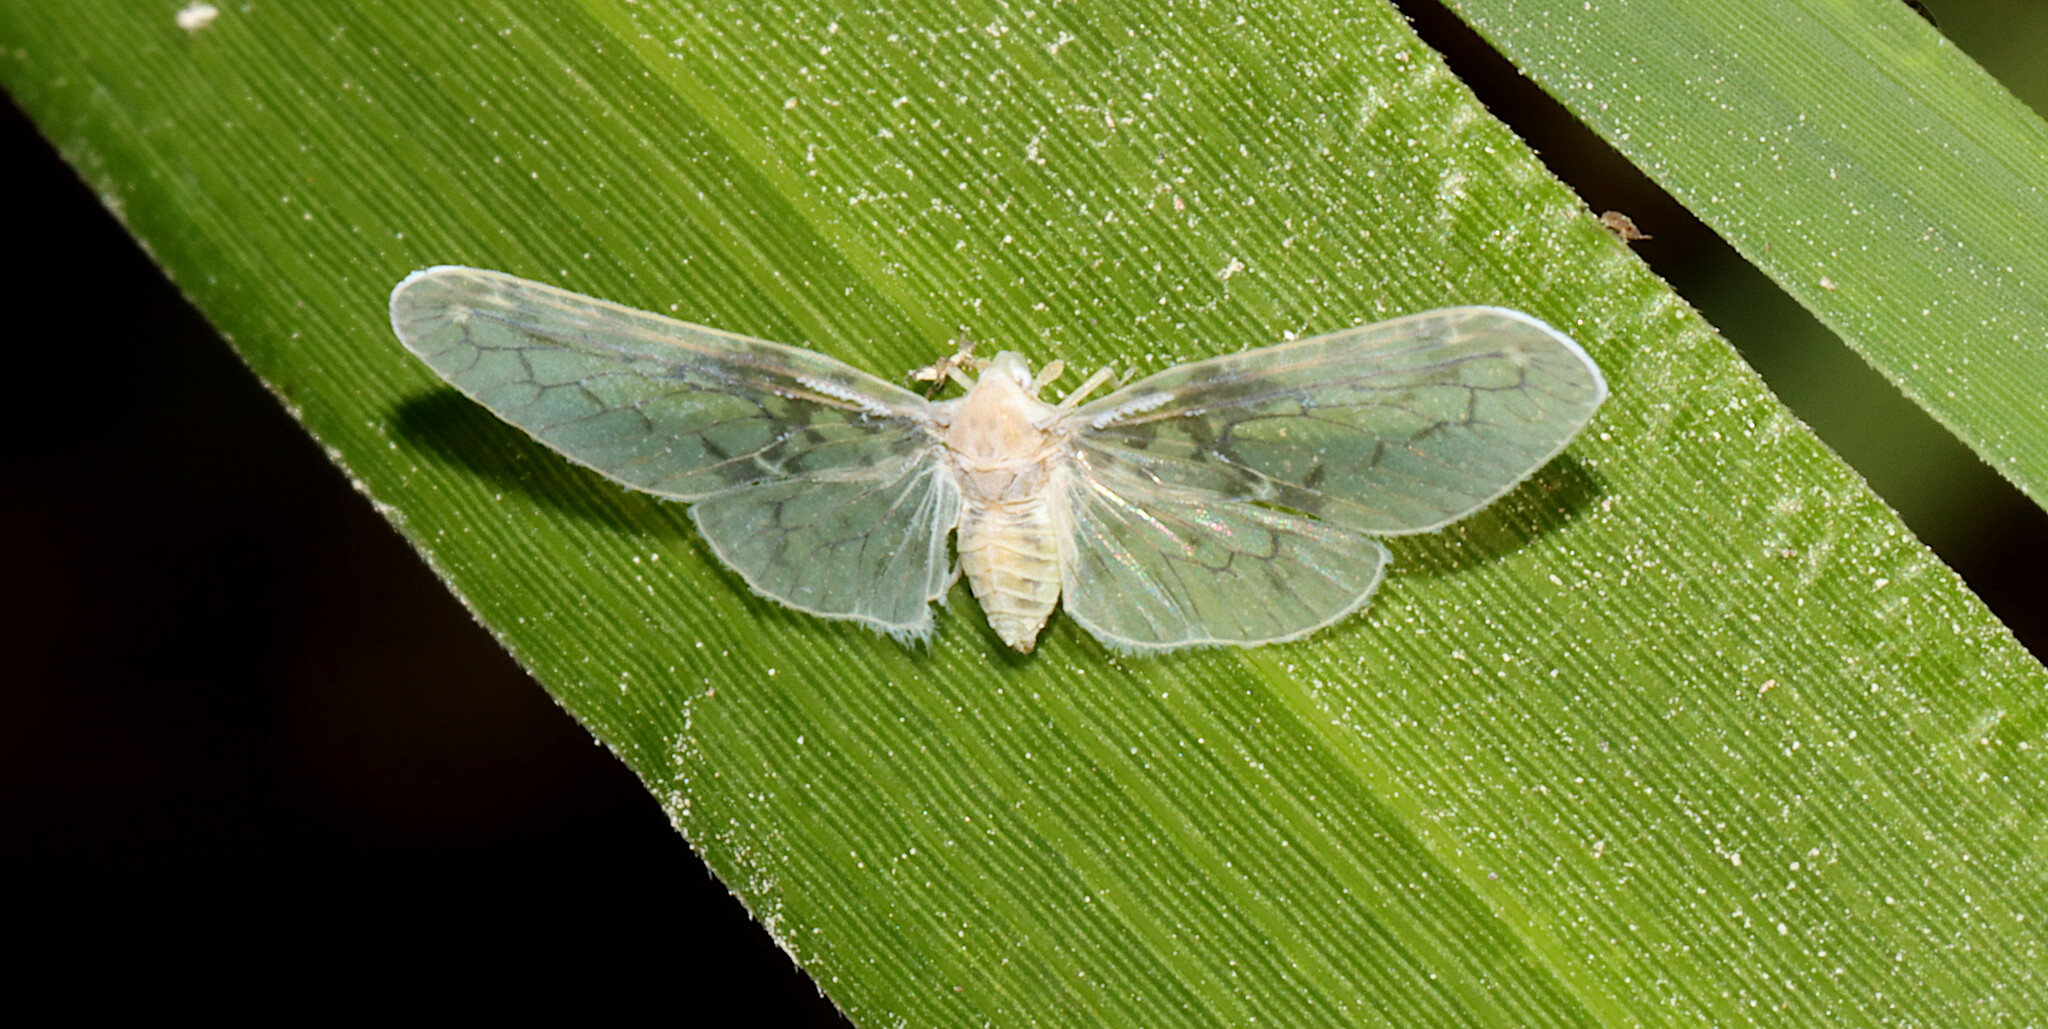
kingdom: Animalia
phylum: Arthropoda
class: Insecta
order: Hemiptera
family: Derbidae
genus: Paramysidia
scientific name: Paramysidia mississippiensis
